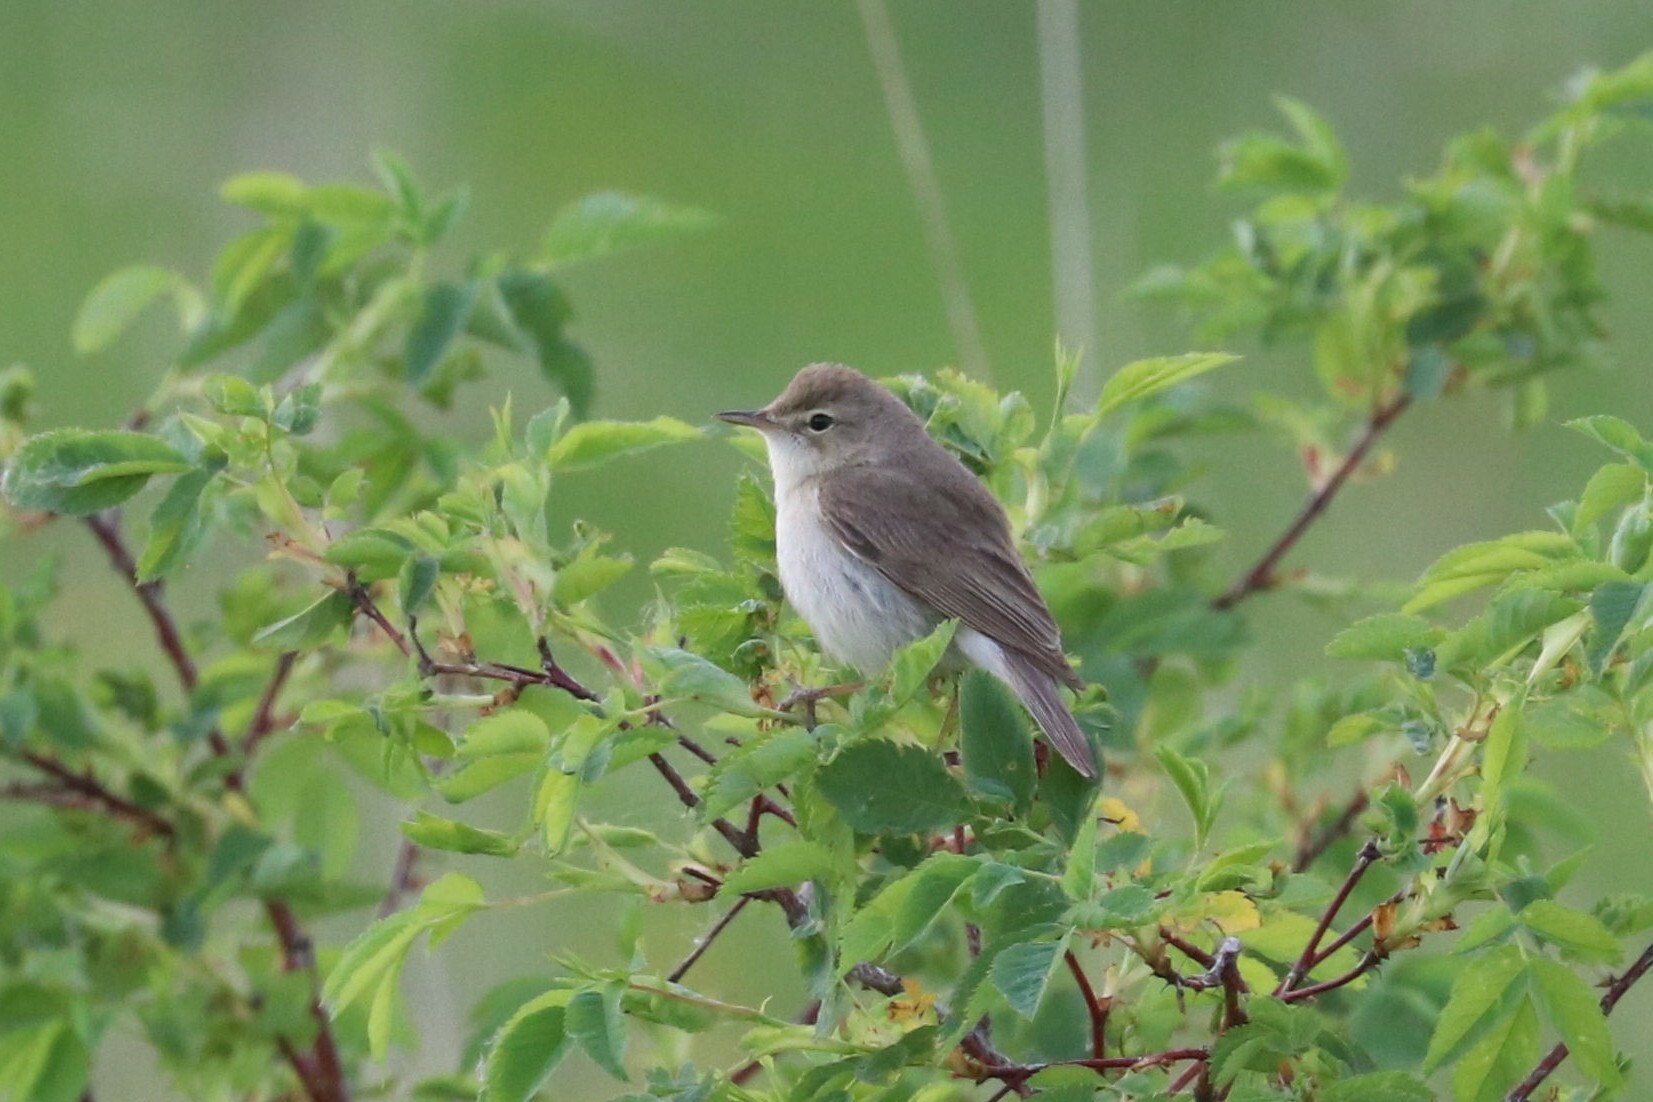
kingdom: Animalia
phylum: Chordata
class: Aves
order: Passeriformes
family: Acrocephalidae
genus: Iduna
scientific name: Iduna caligata
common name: Booted warbler
